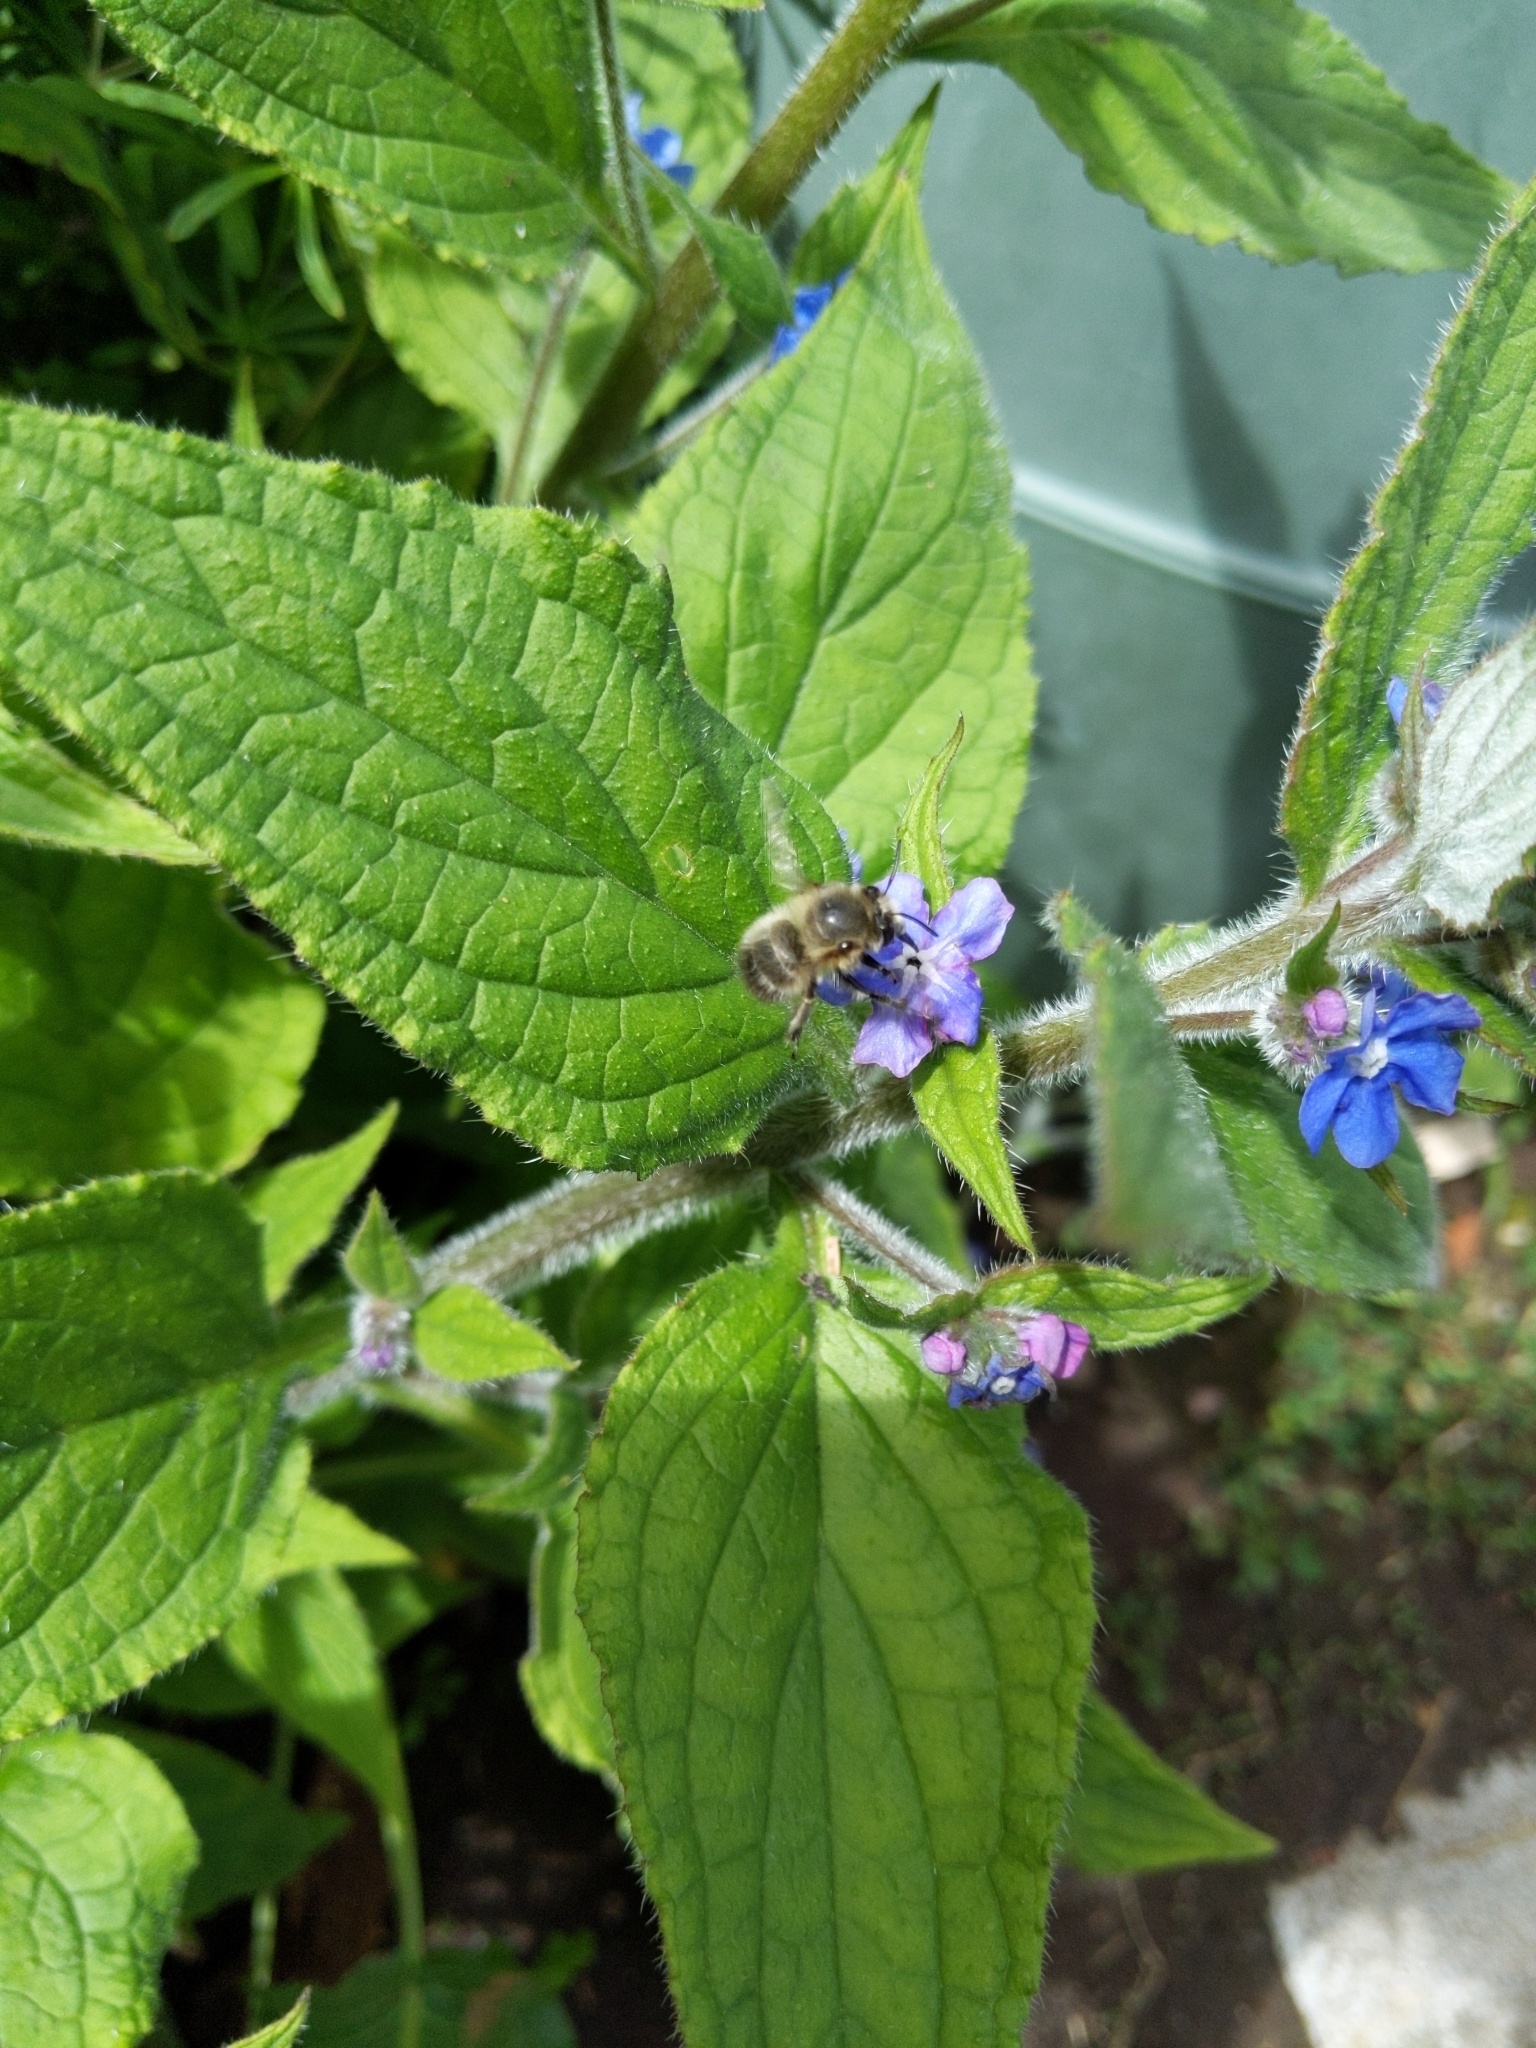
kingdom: Animalia
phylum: Arthropoda
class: Insecta
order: Hymenoptera
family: Apidae
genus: Anthophora
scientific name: Anthophora plumipes
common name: Hairy-footed flower bee
